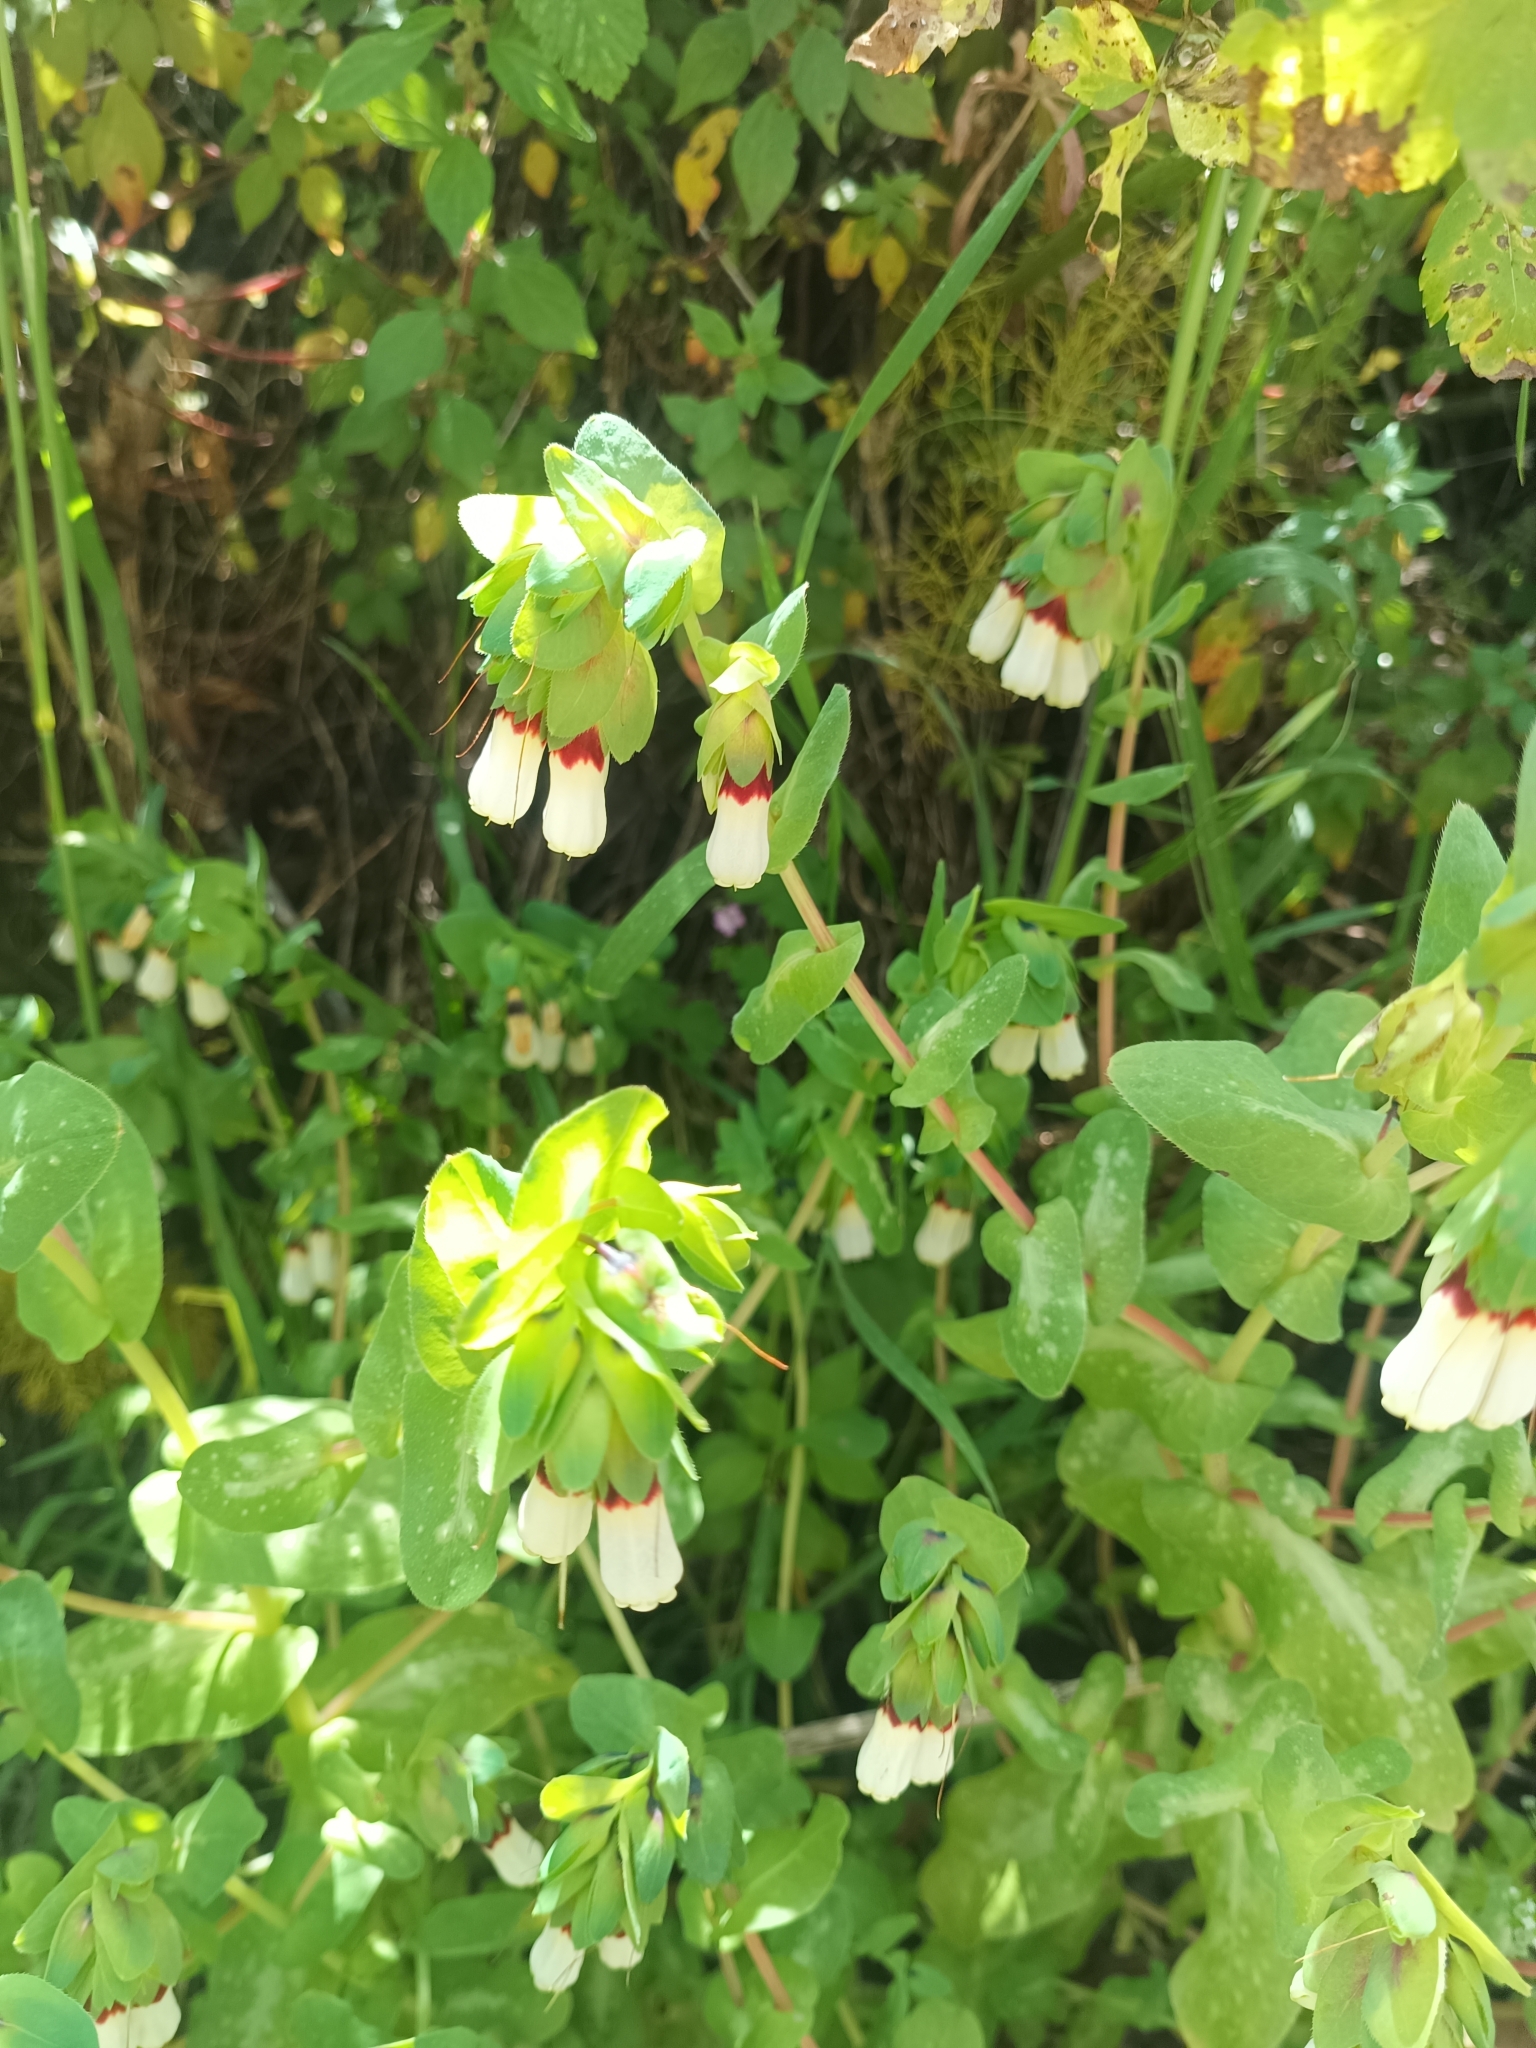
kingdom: Plantae
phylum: Tracheophyta
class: Magnoliopsida
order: Boraginales
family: Boraginaceae
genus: Cerinthe
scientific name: Cerinthe major
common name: Greater honeywort
